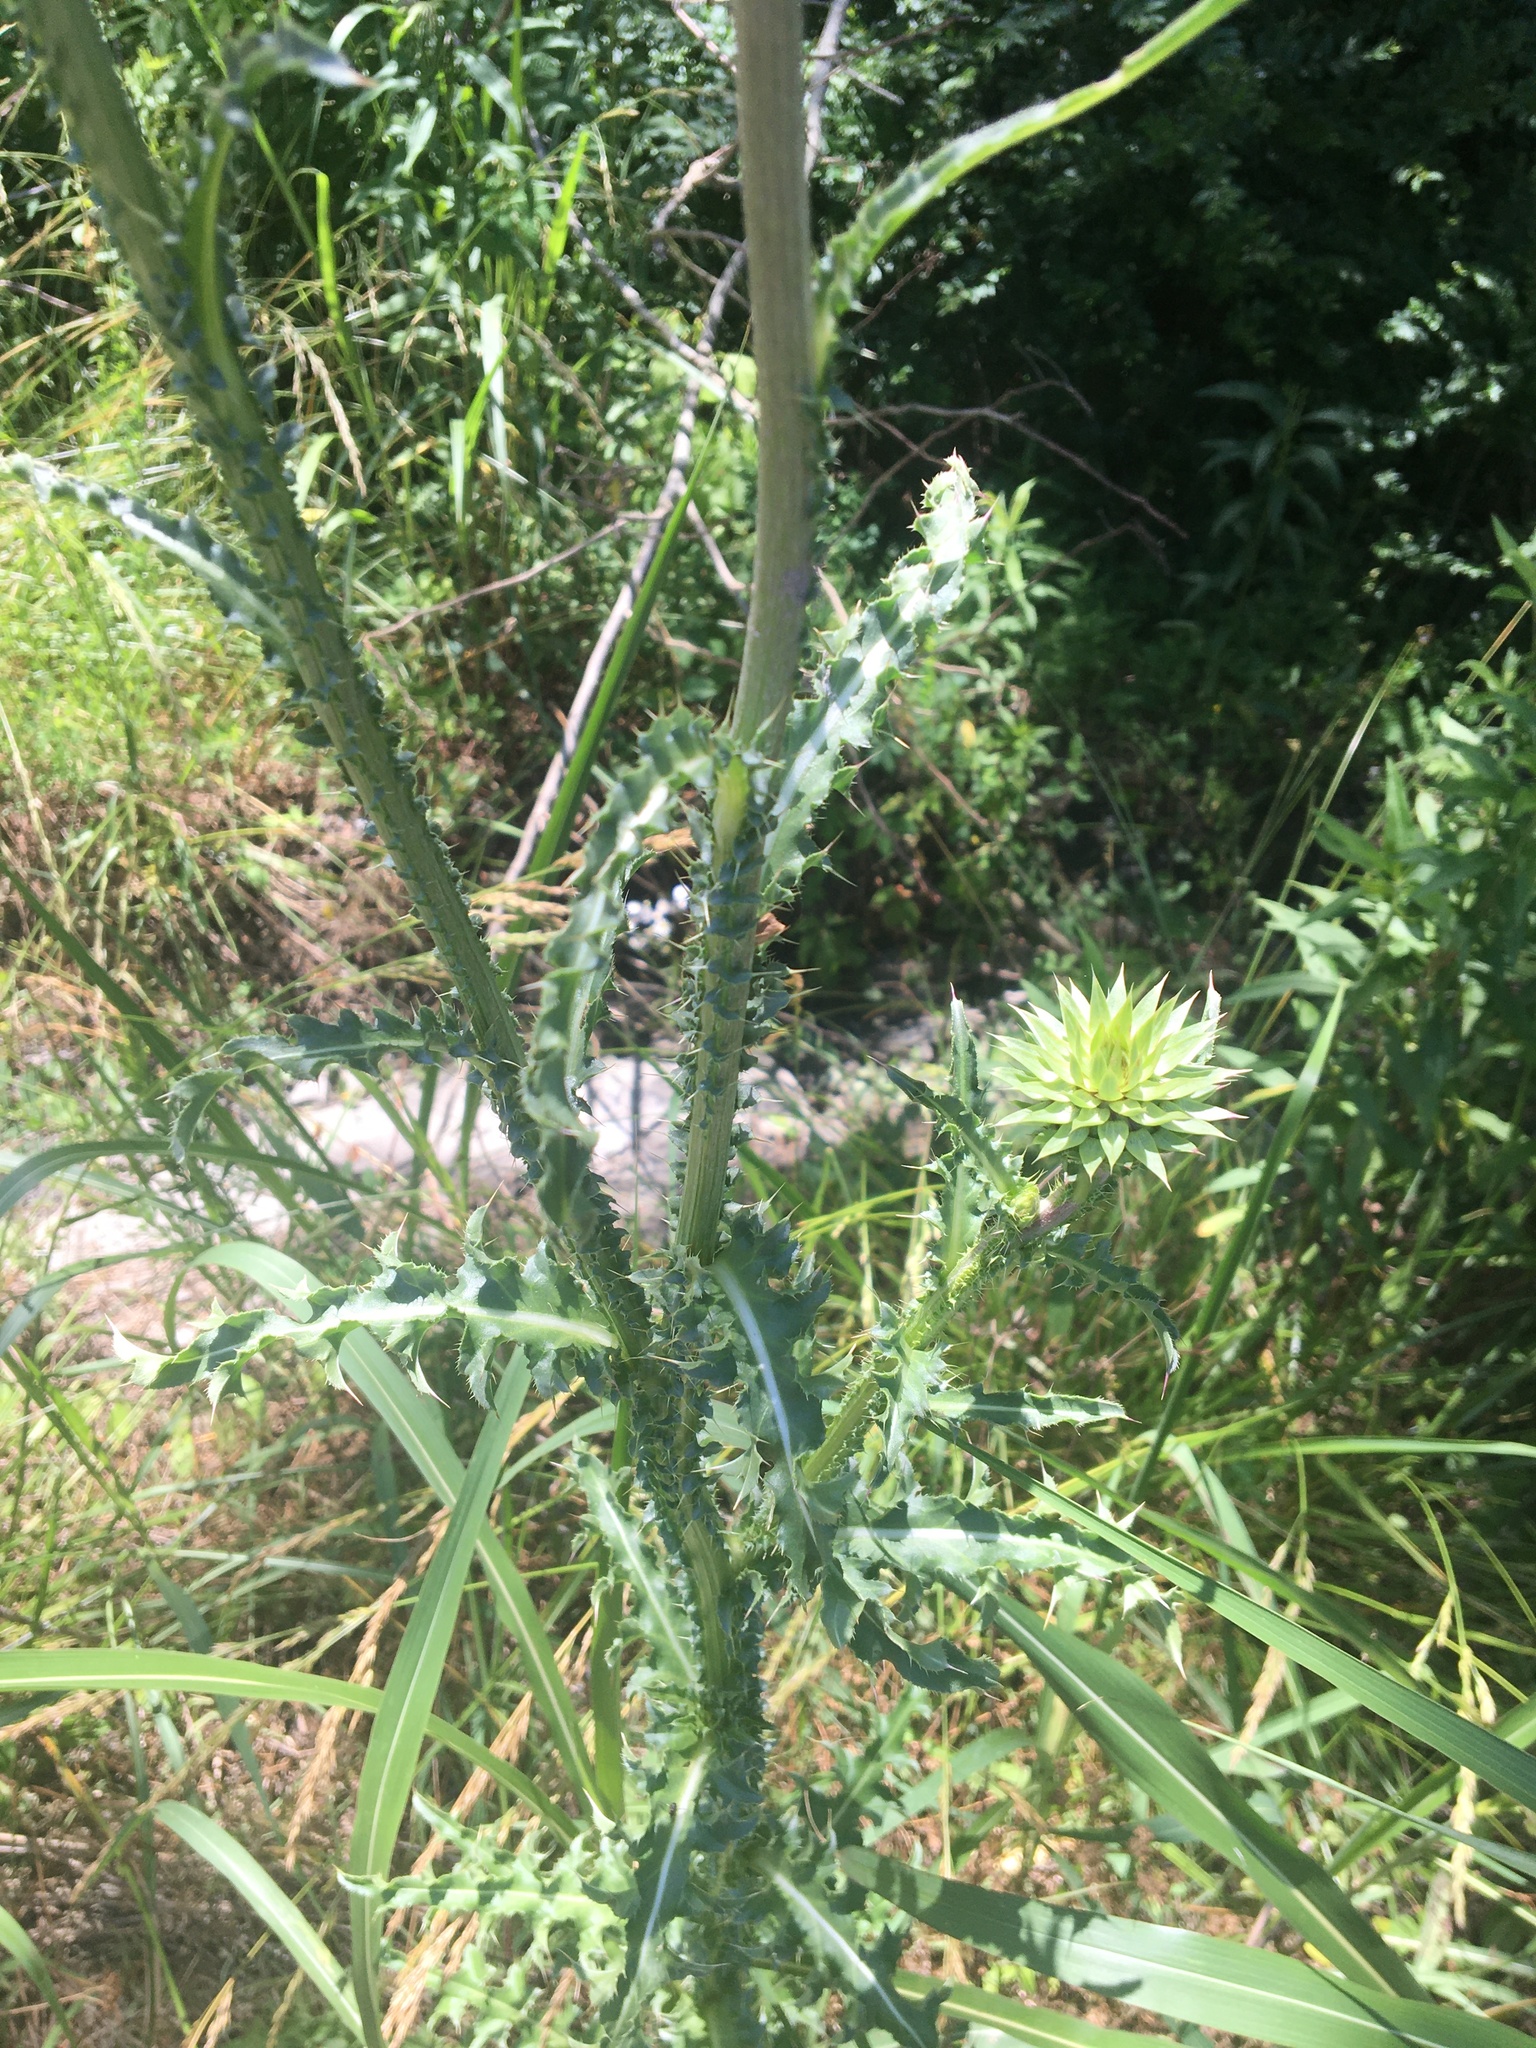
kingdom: Plantae
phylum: Tracheophyta
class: Magnoliopsida
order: Asterales
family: Asteraceae
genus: Carduus
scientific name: Carduus nutans
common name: Musk thistle
